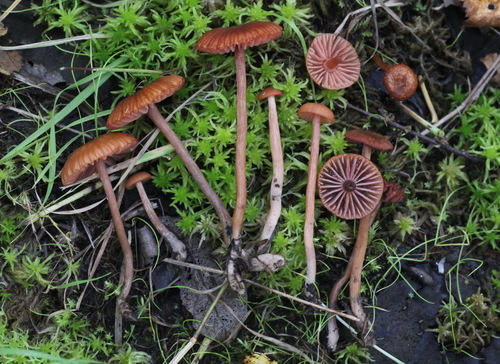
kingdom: Fungi
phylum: Basidiomycota
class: Agaricomycetes
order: Agaricales
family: Hydnangiaceae
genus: Laccaria
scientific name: Laccaria laccata
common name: Deceiver
